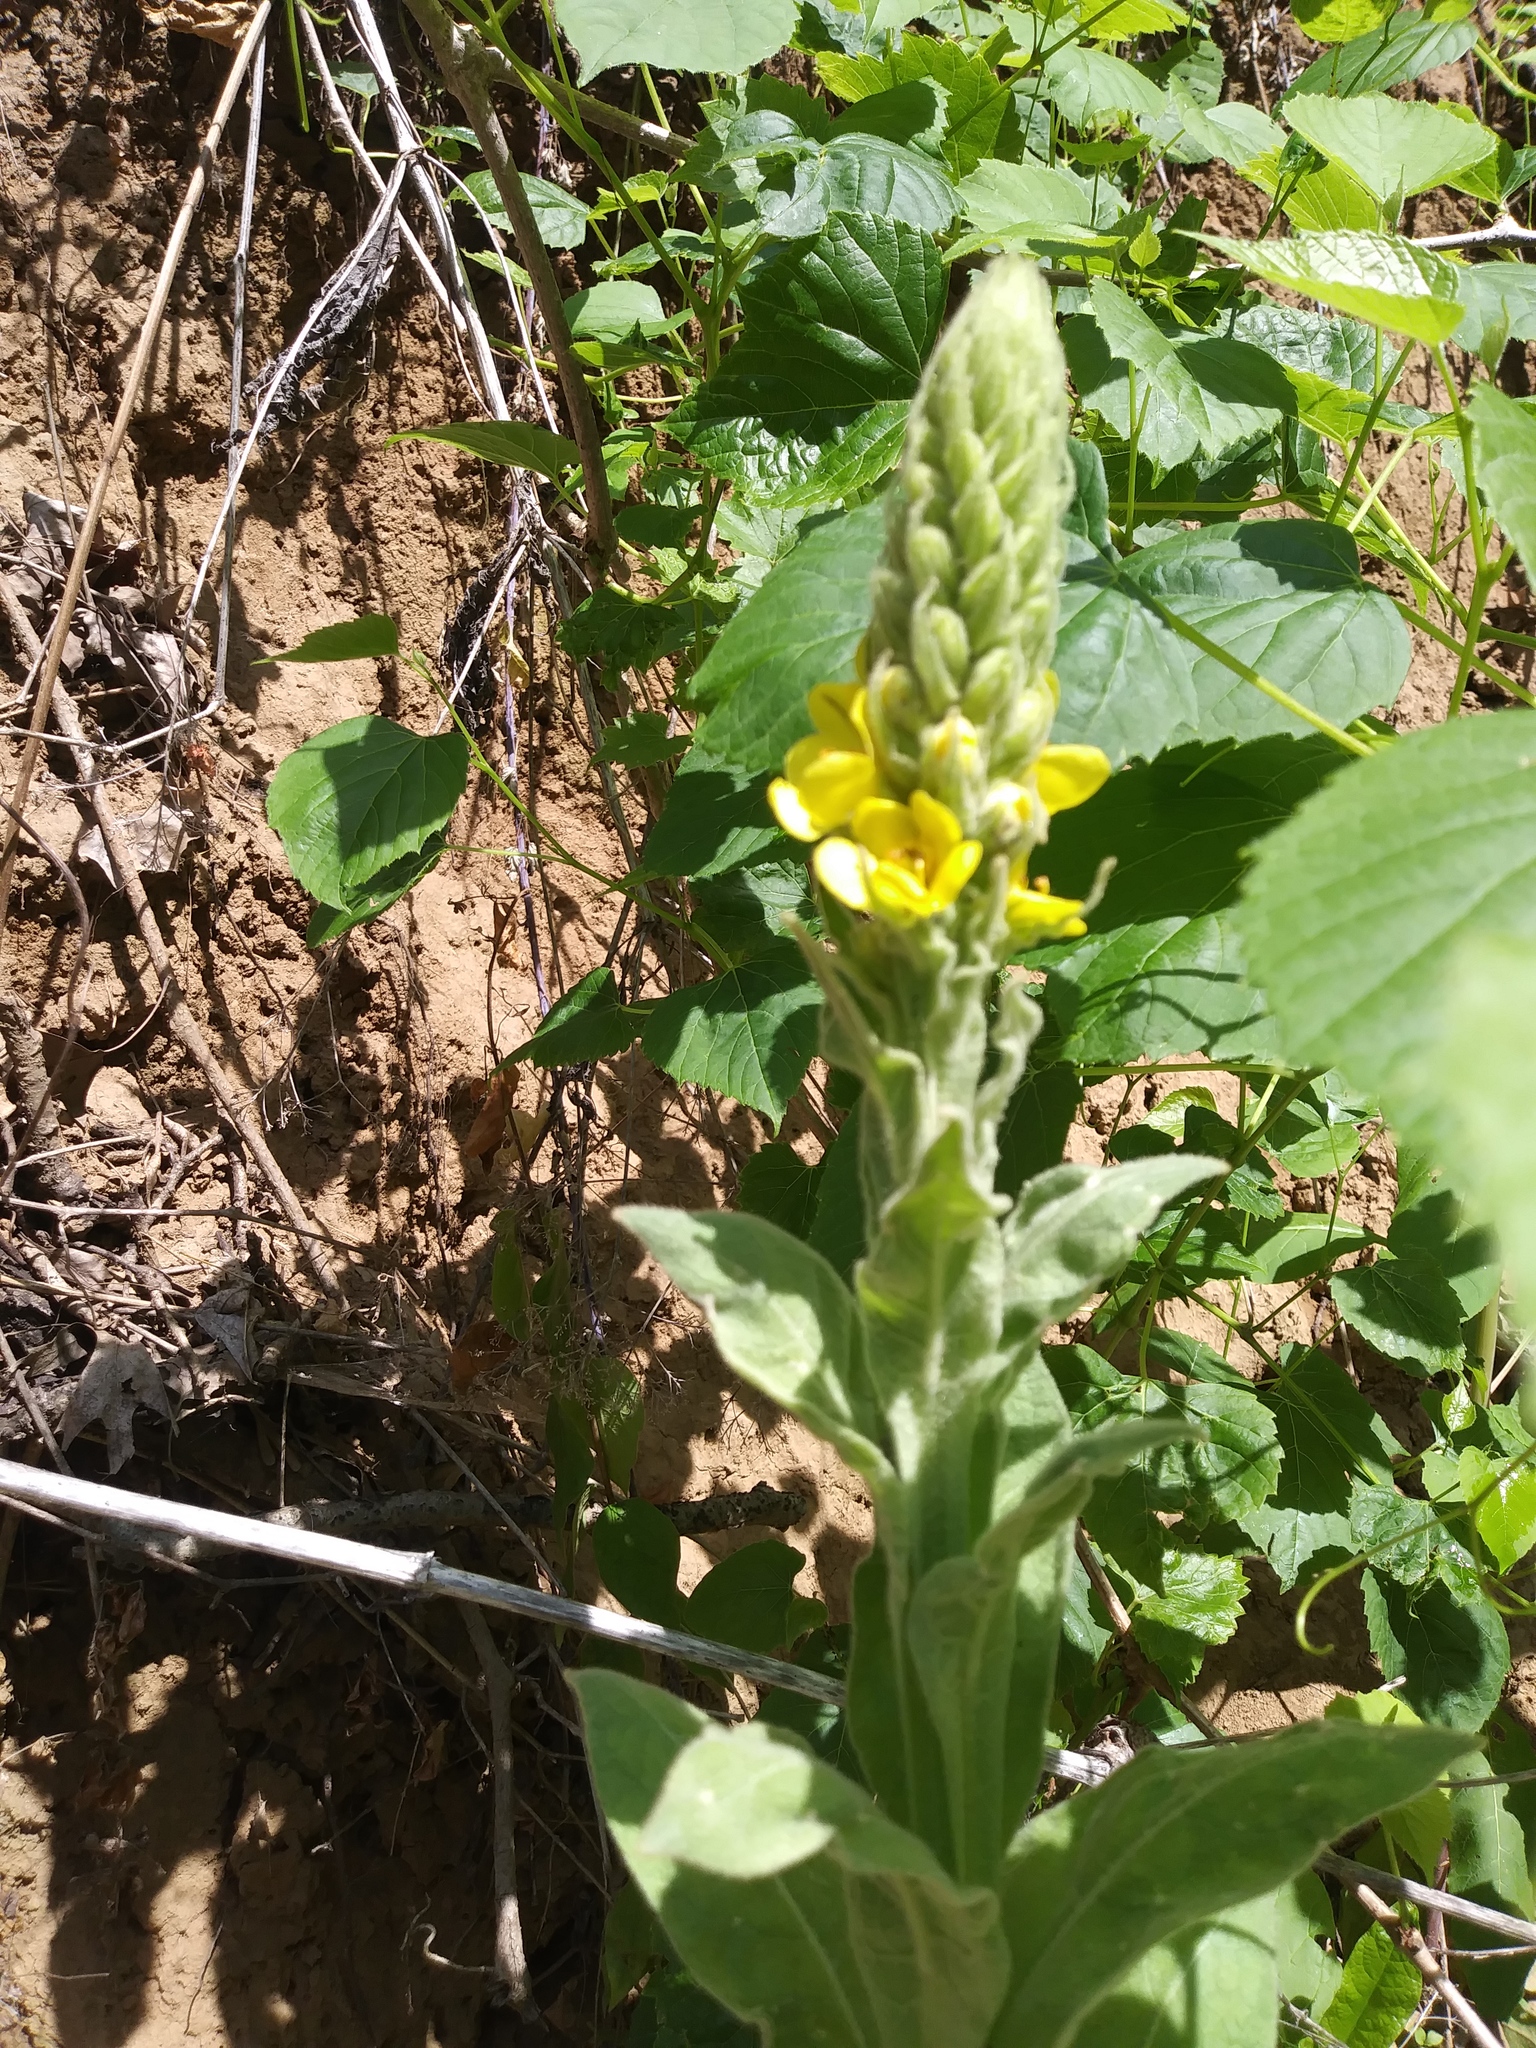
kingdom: Plantae
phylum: Tracheophyta
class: Magnoliopsida
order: Lamiales
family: Scrophulariaceae
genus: Verbascum
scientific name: Verbascum thapsus
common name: Common mullein
